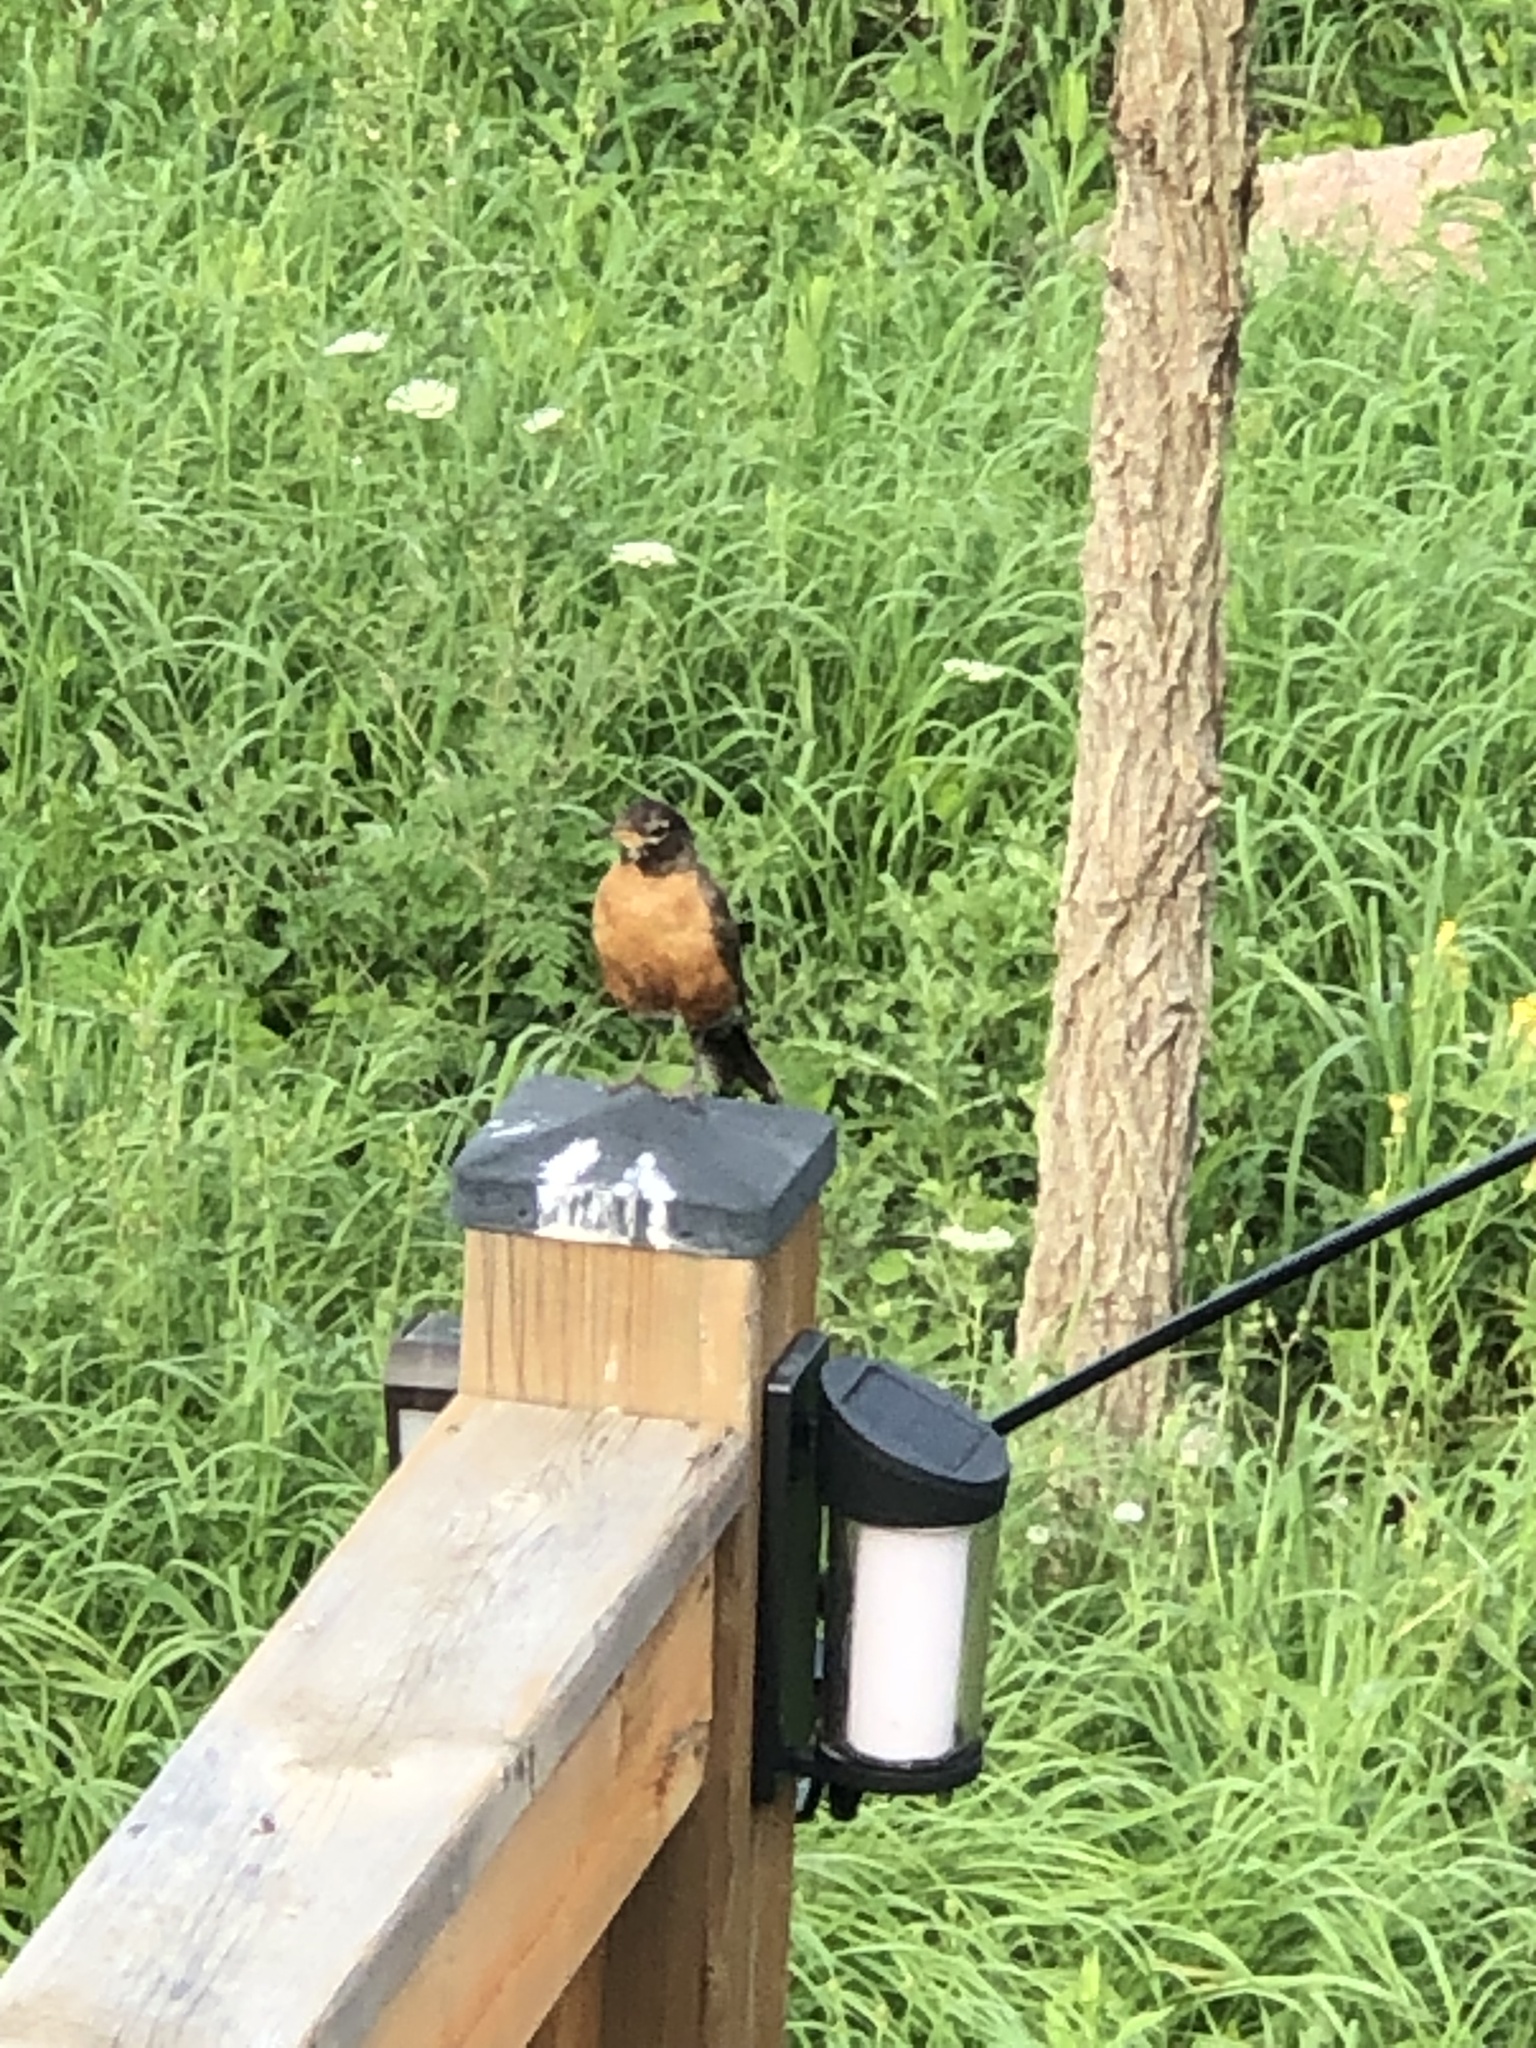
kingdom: Animalia
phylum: Chordata
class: Aves
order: Passeriformes
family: Turdidae
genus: Turdus
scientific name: Turdus migratorius
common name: American robin
